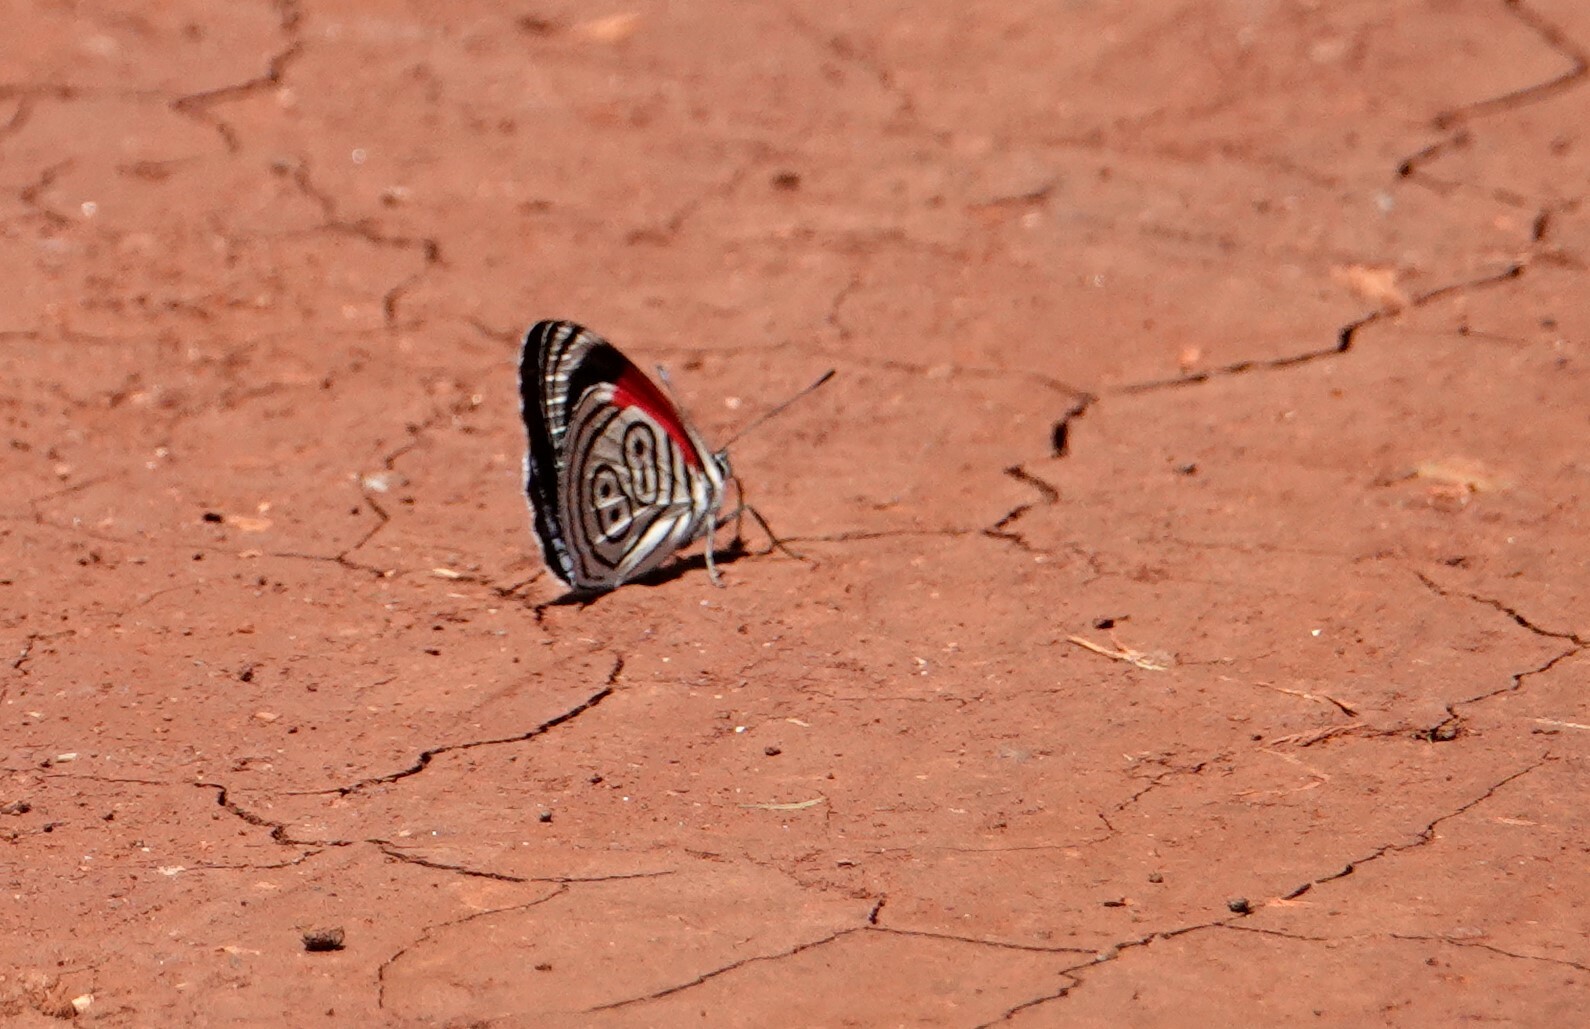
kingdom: Animalia
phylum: Arthropoda
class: Insecta
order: Lepidoptera
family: Nymphalidae
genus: Diaethria
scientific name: Diaethria clymena
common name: Widespread eighty-eight
